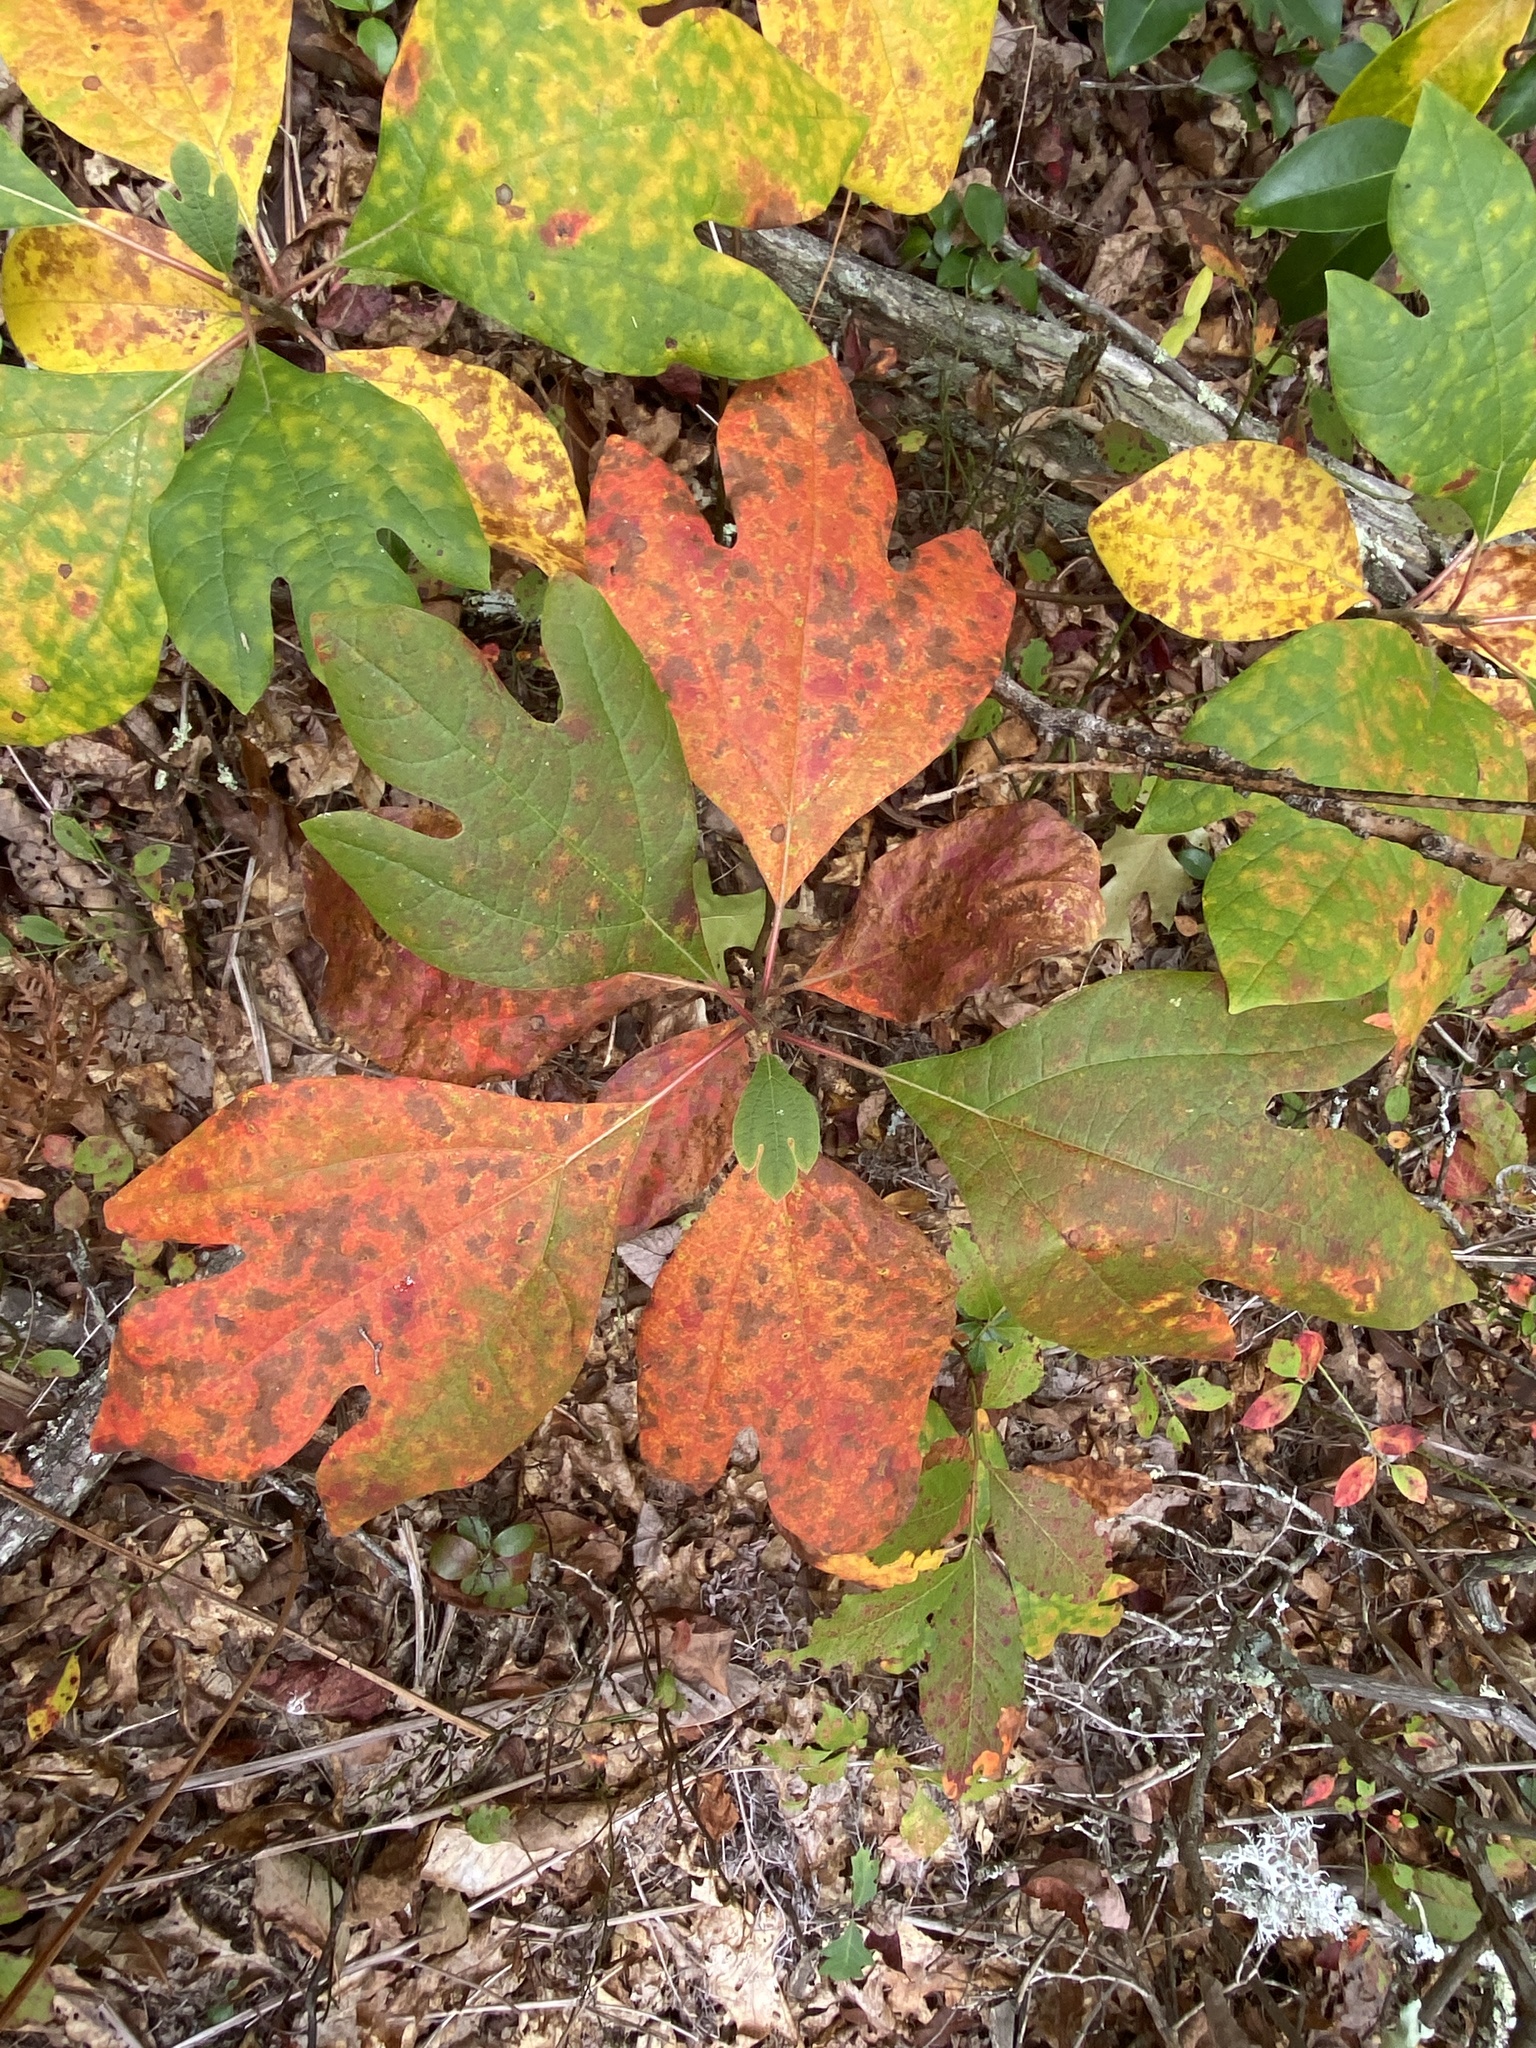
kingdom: Plantae
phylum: Tracheophyta
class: Magnoliopsida
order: Laurales
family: Lauraceae
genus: Sassafras
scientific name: Sassafras albidum
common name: Sassafras
